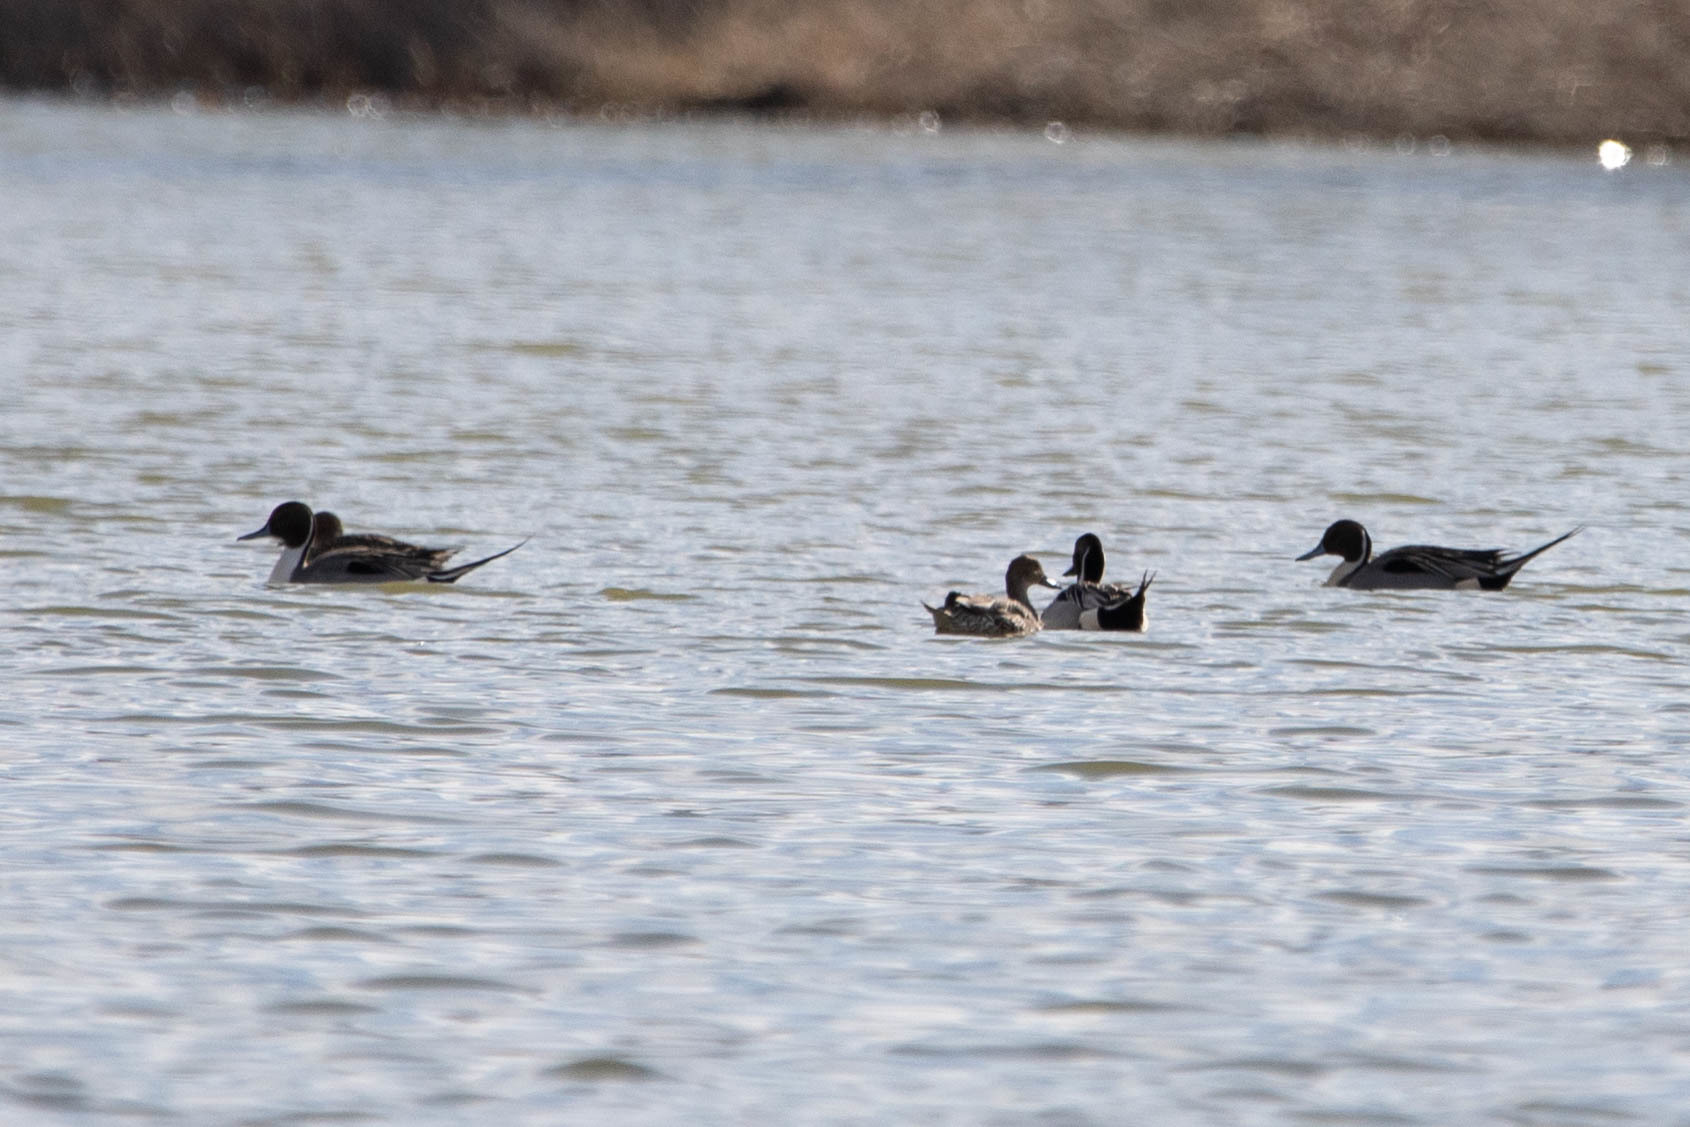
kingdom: Animalia
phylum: Chordata
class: Aves
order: Anseriformes
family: Anatidae
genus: Anas
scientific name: Anas acuta
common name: Northern pintail
